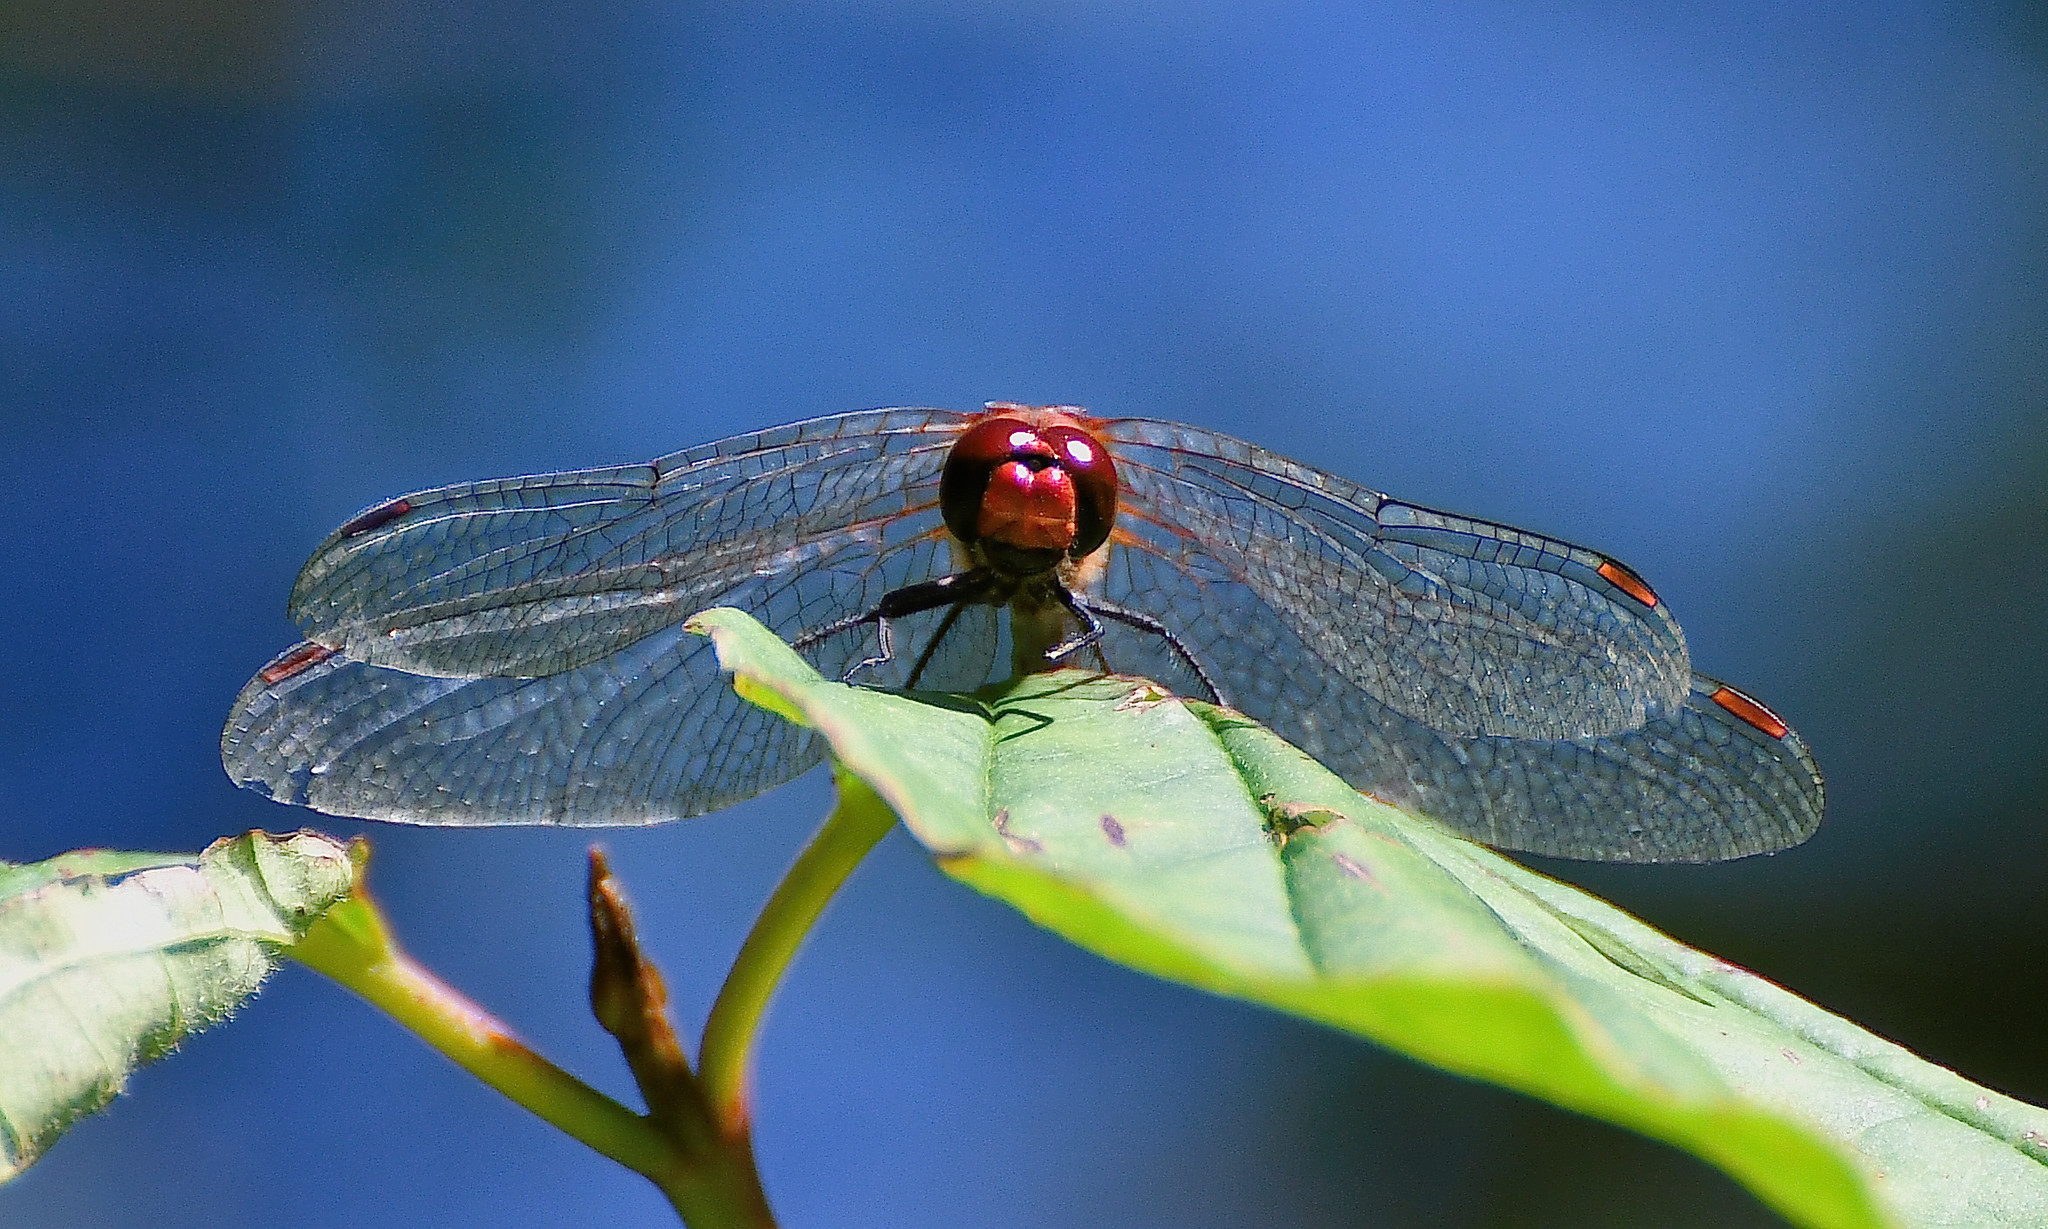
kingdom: Animalia
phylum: Arthropoda
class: Insecta
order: Odonata
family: Libellulidae
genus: Sympetrum
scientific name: Sympetrum sanguineum
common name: Ruddy darter
